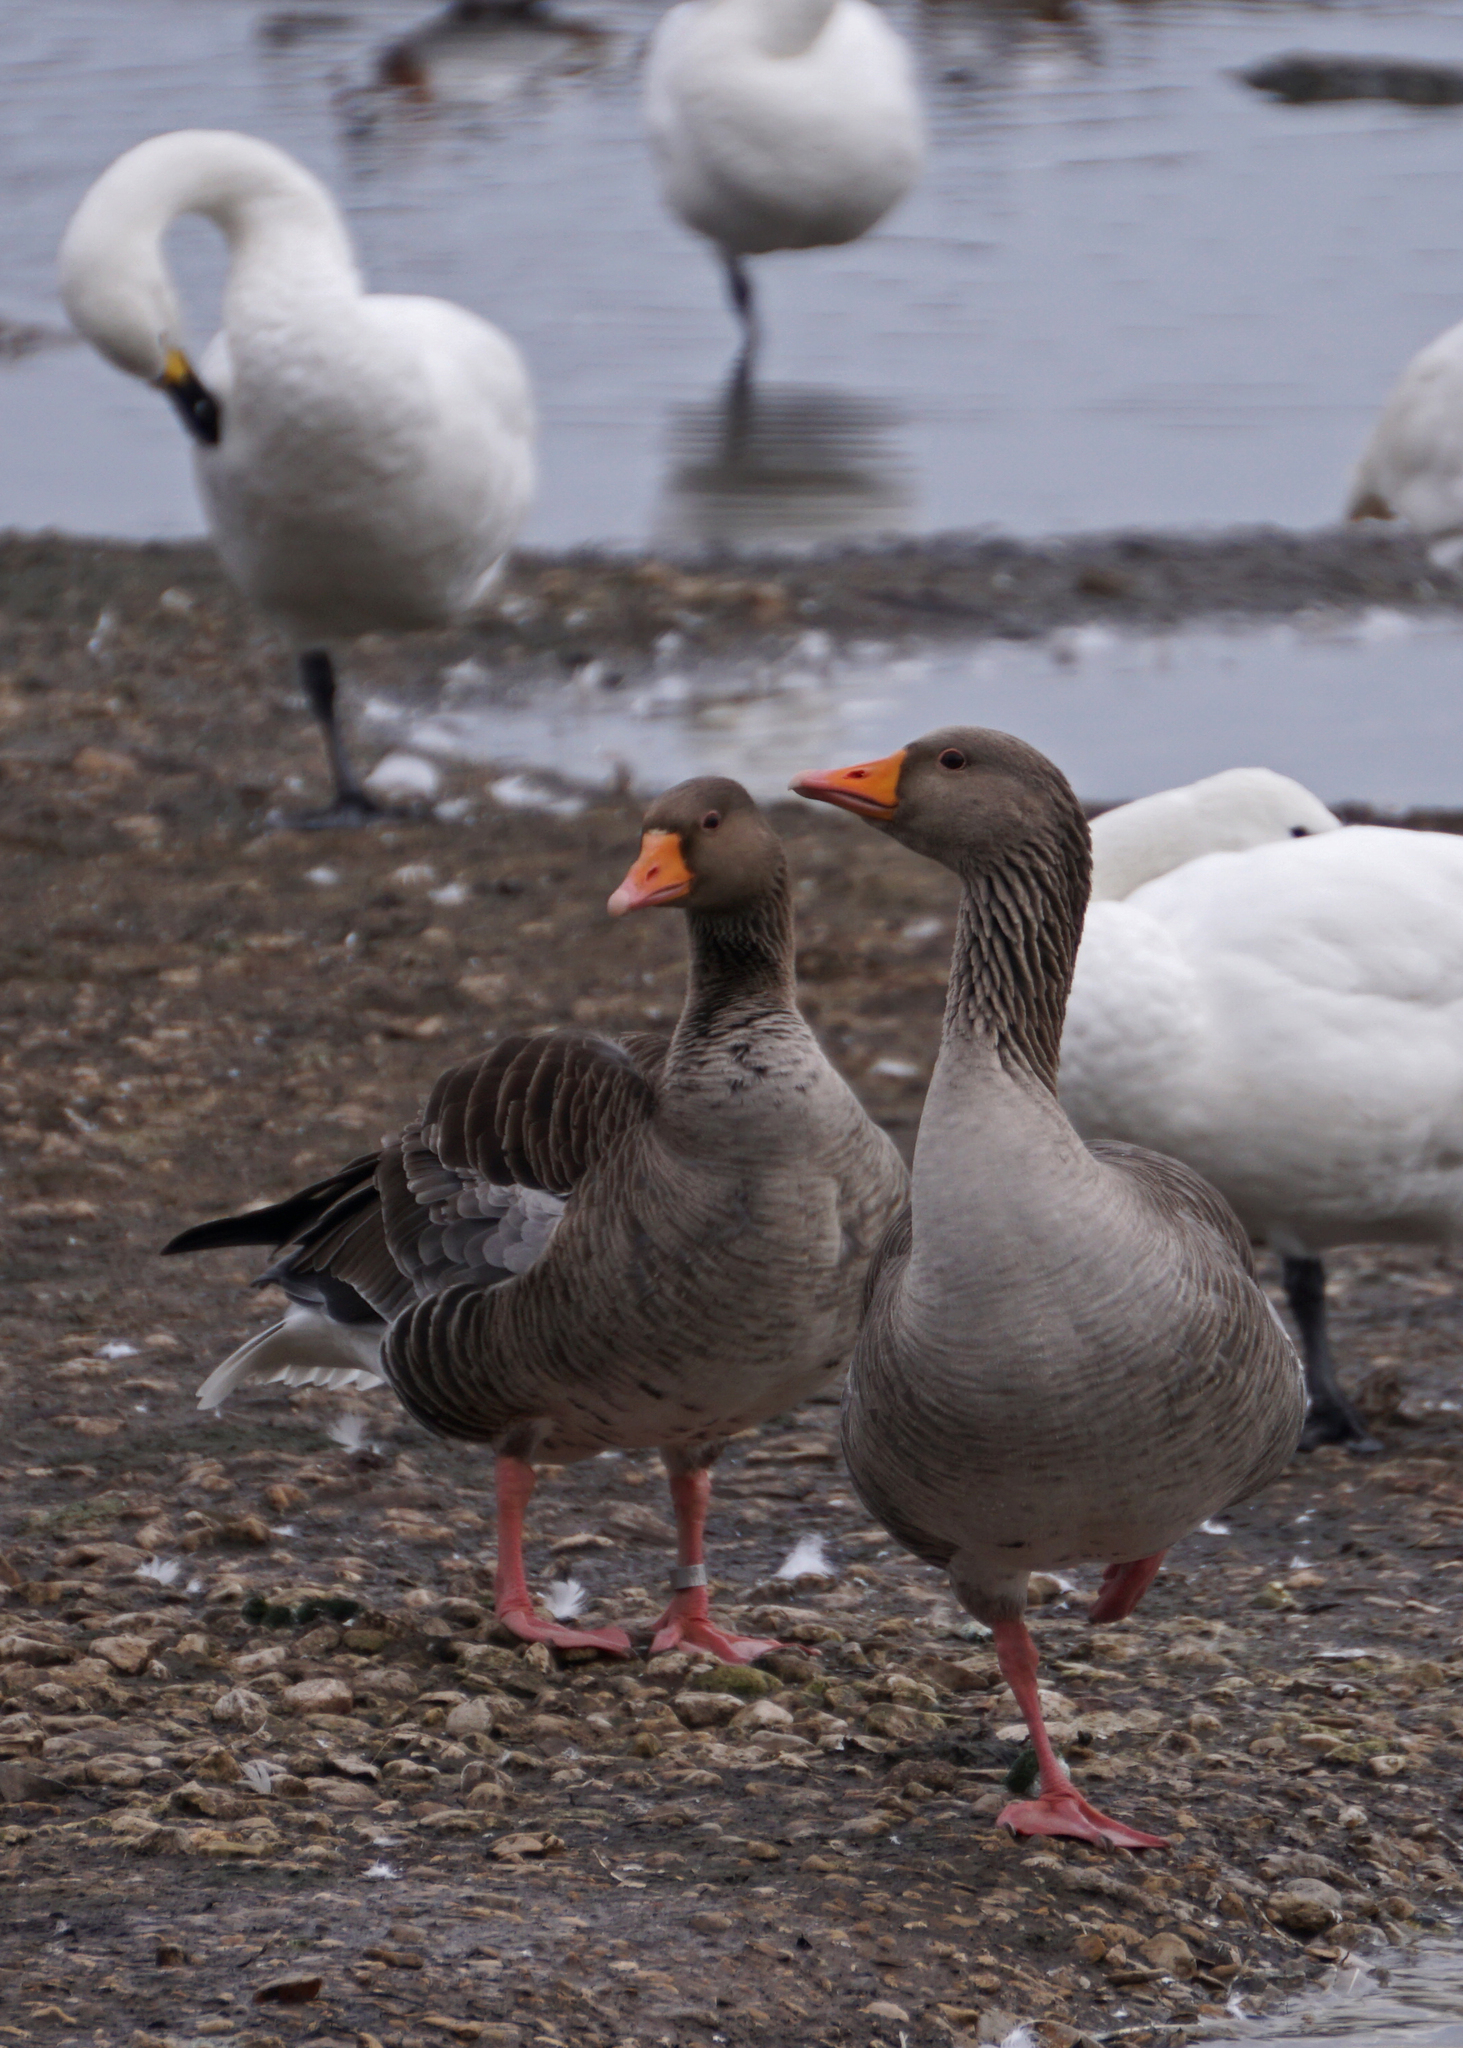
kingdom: Animalia
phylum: Chordata
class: Aves
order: Anseriformes
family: Anatidae
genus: Anser
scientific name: Anser anser
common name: Greylag goose
